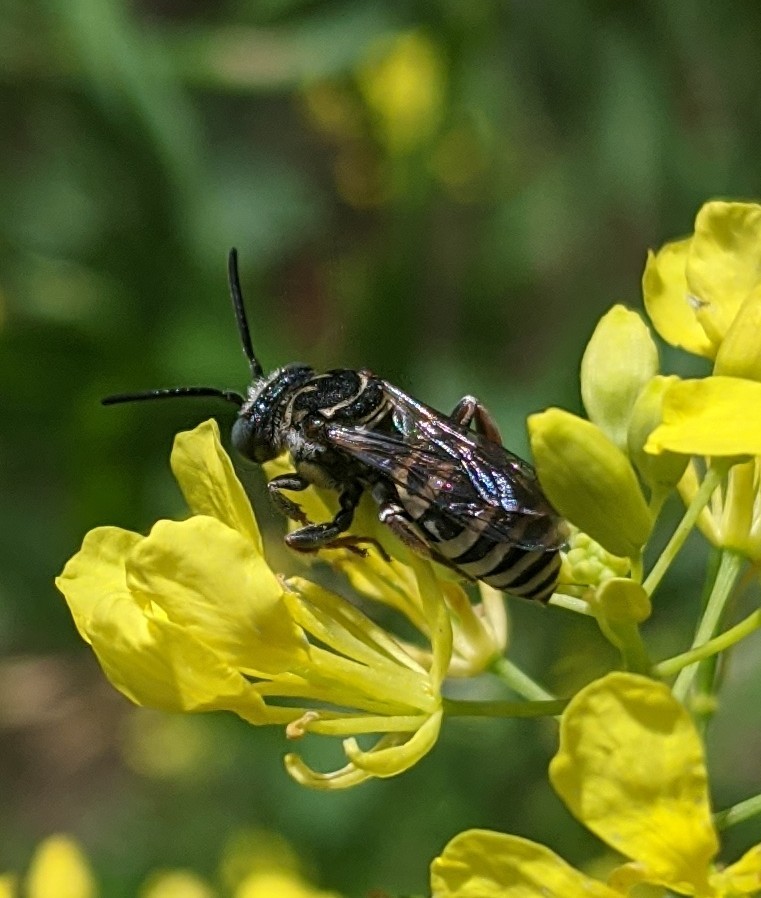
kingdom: Animalia
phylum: Arthropoda
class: Insecta
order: Hymenoptera
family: Apidae
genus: Triepeolus
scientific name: Triepeolus
